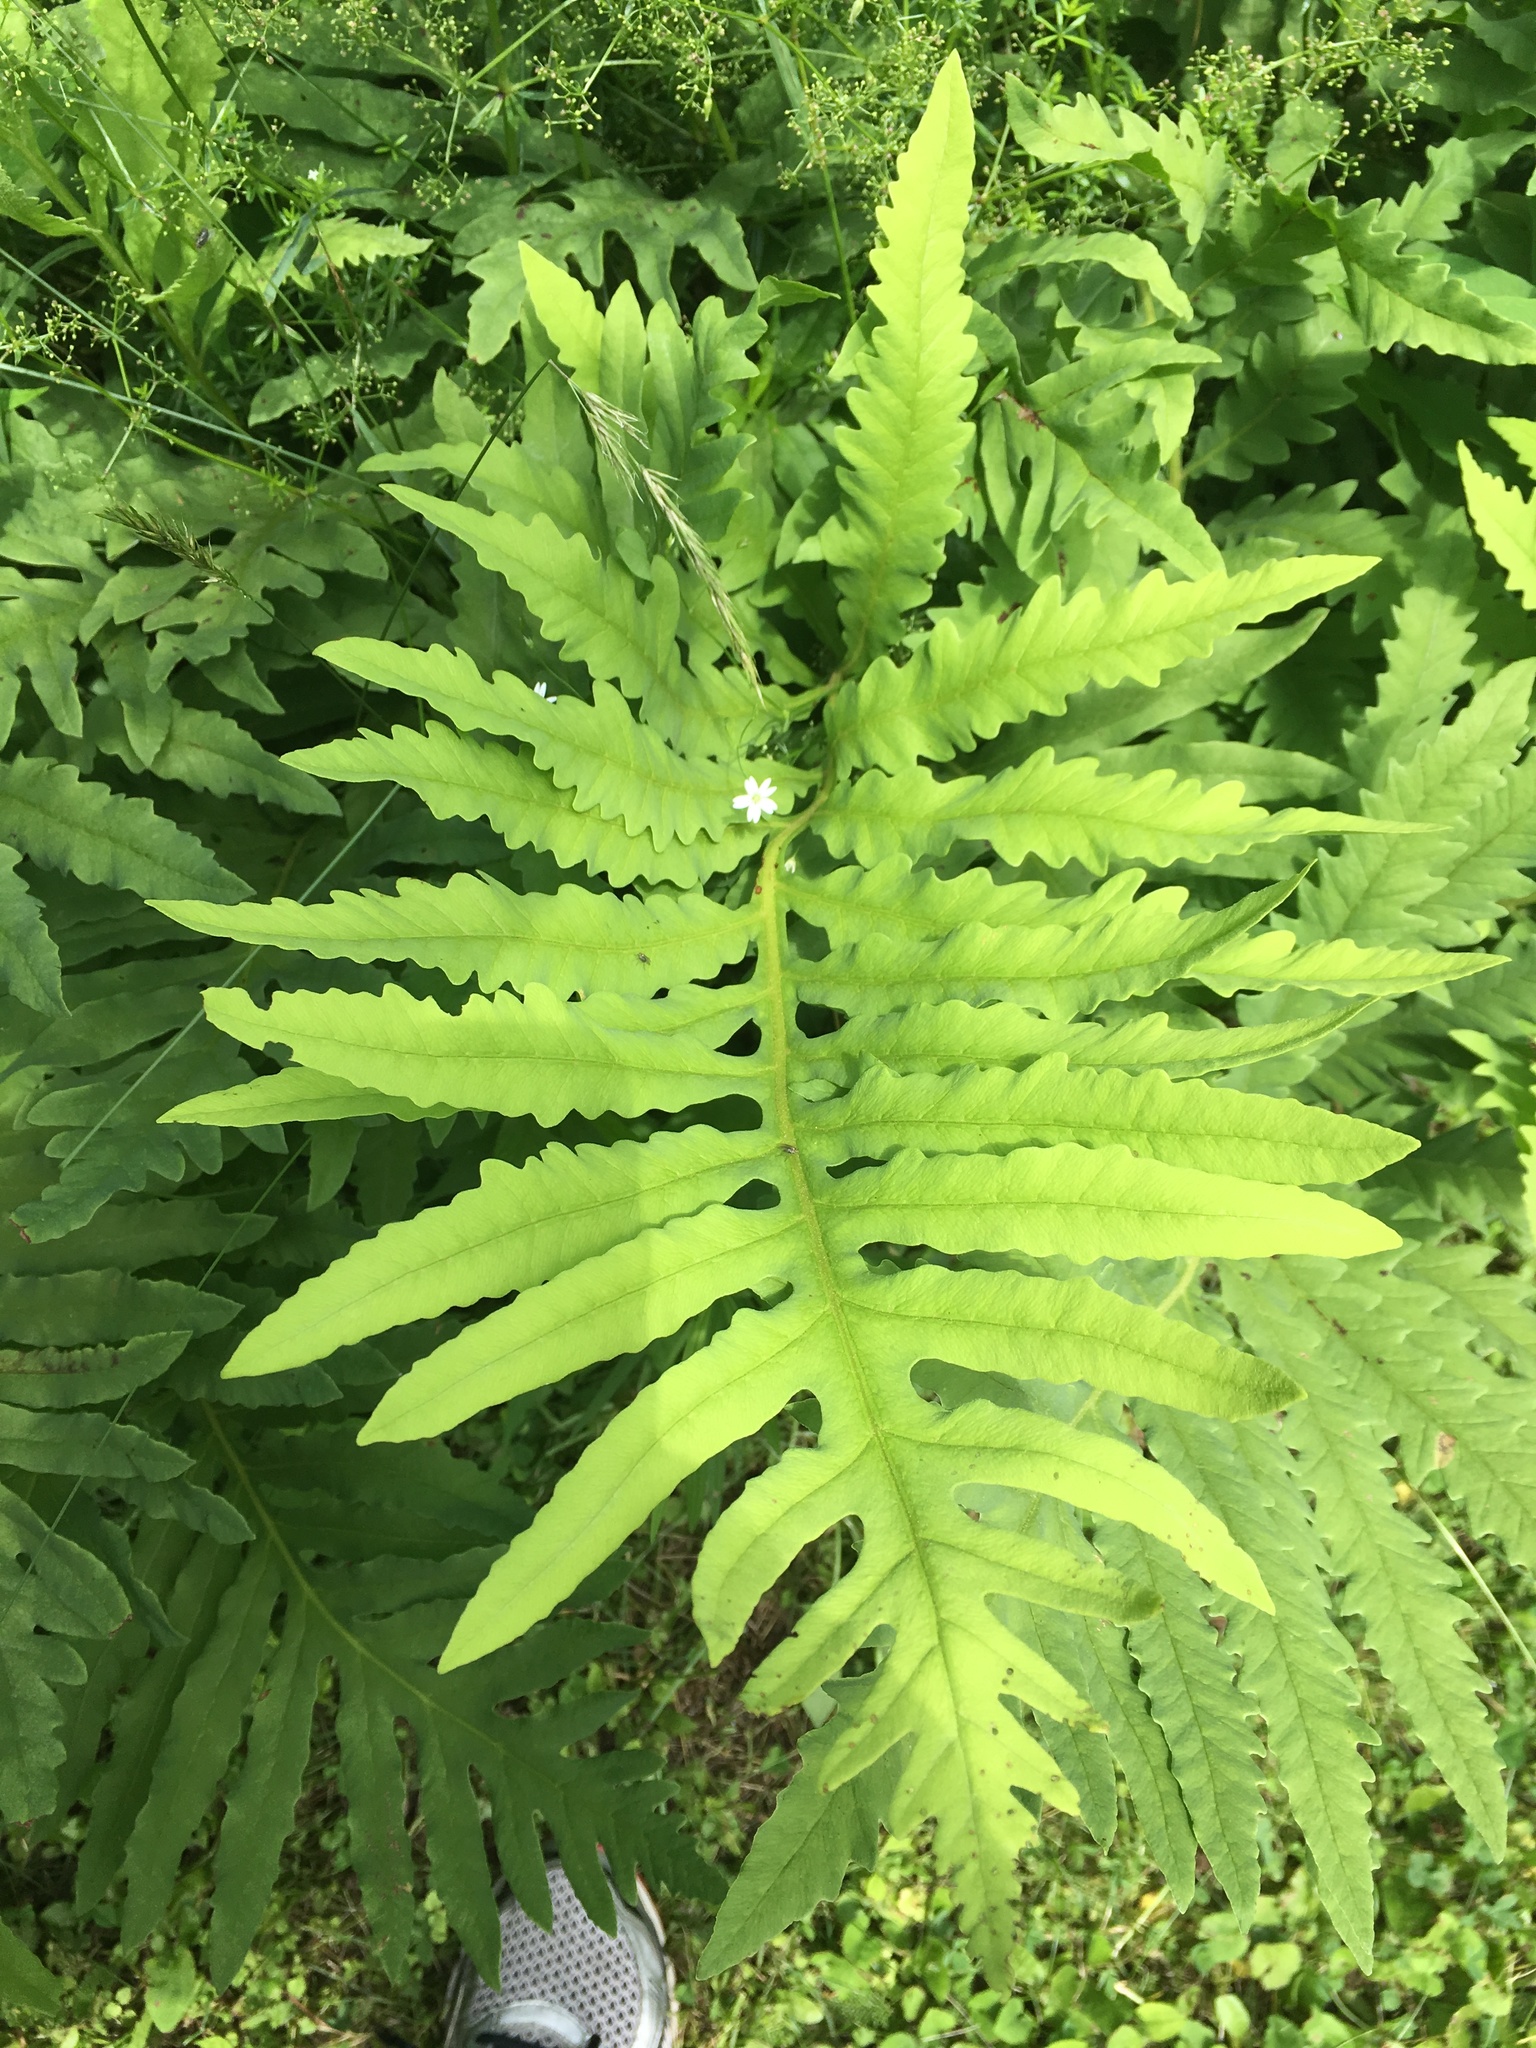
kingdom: Plantae
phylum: Tracheophyta
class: Polypodiopsida
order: Polypodiales
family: Onocleaceae
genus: Onoclea
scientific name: Onoclea sensibilis
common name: Sensitive fern
